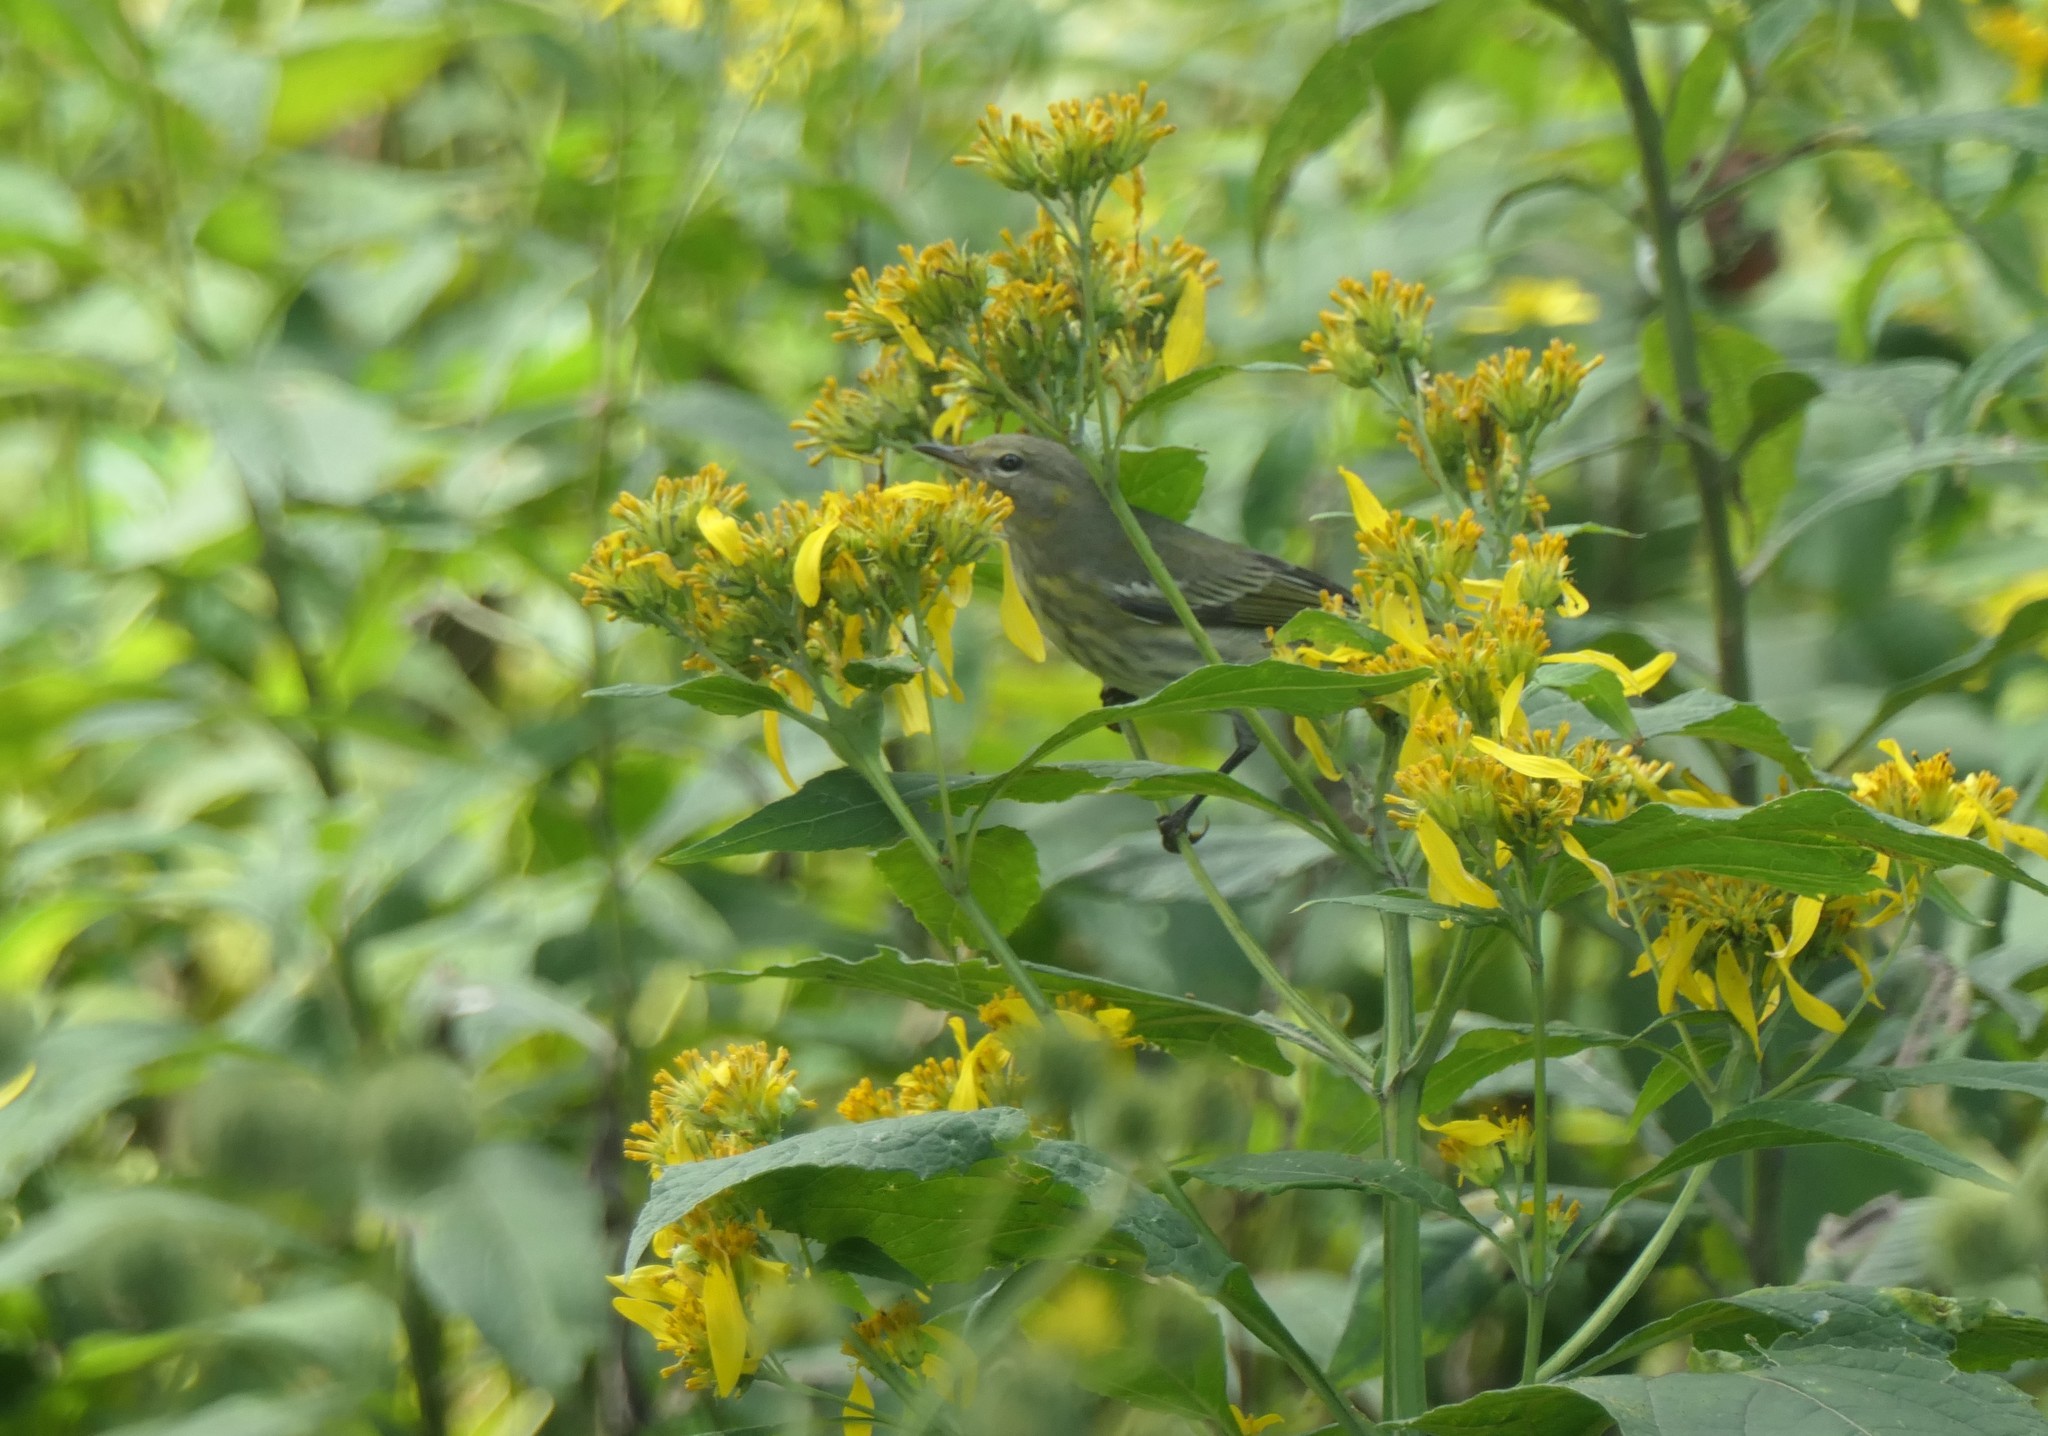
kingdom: Animalia
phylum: Chordata
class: Aves
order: Passeriformes
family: Parulidae
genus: Setophaga
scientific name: Setophaga tigrina
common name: Cape may warbler
